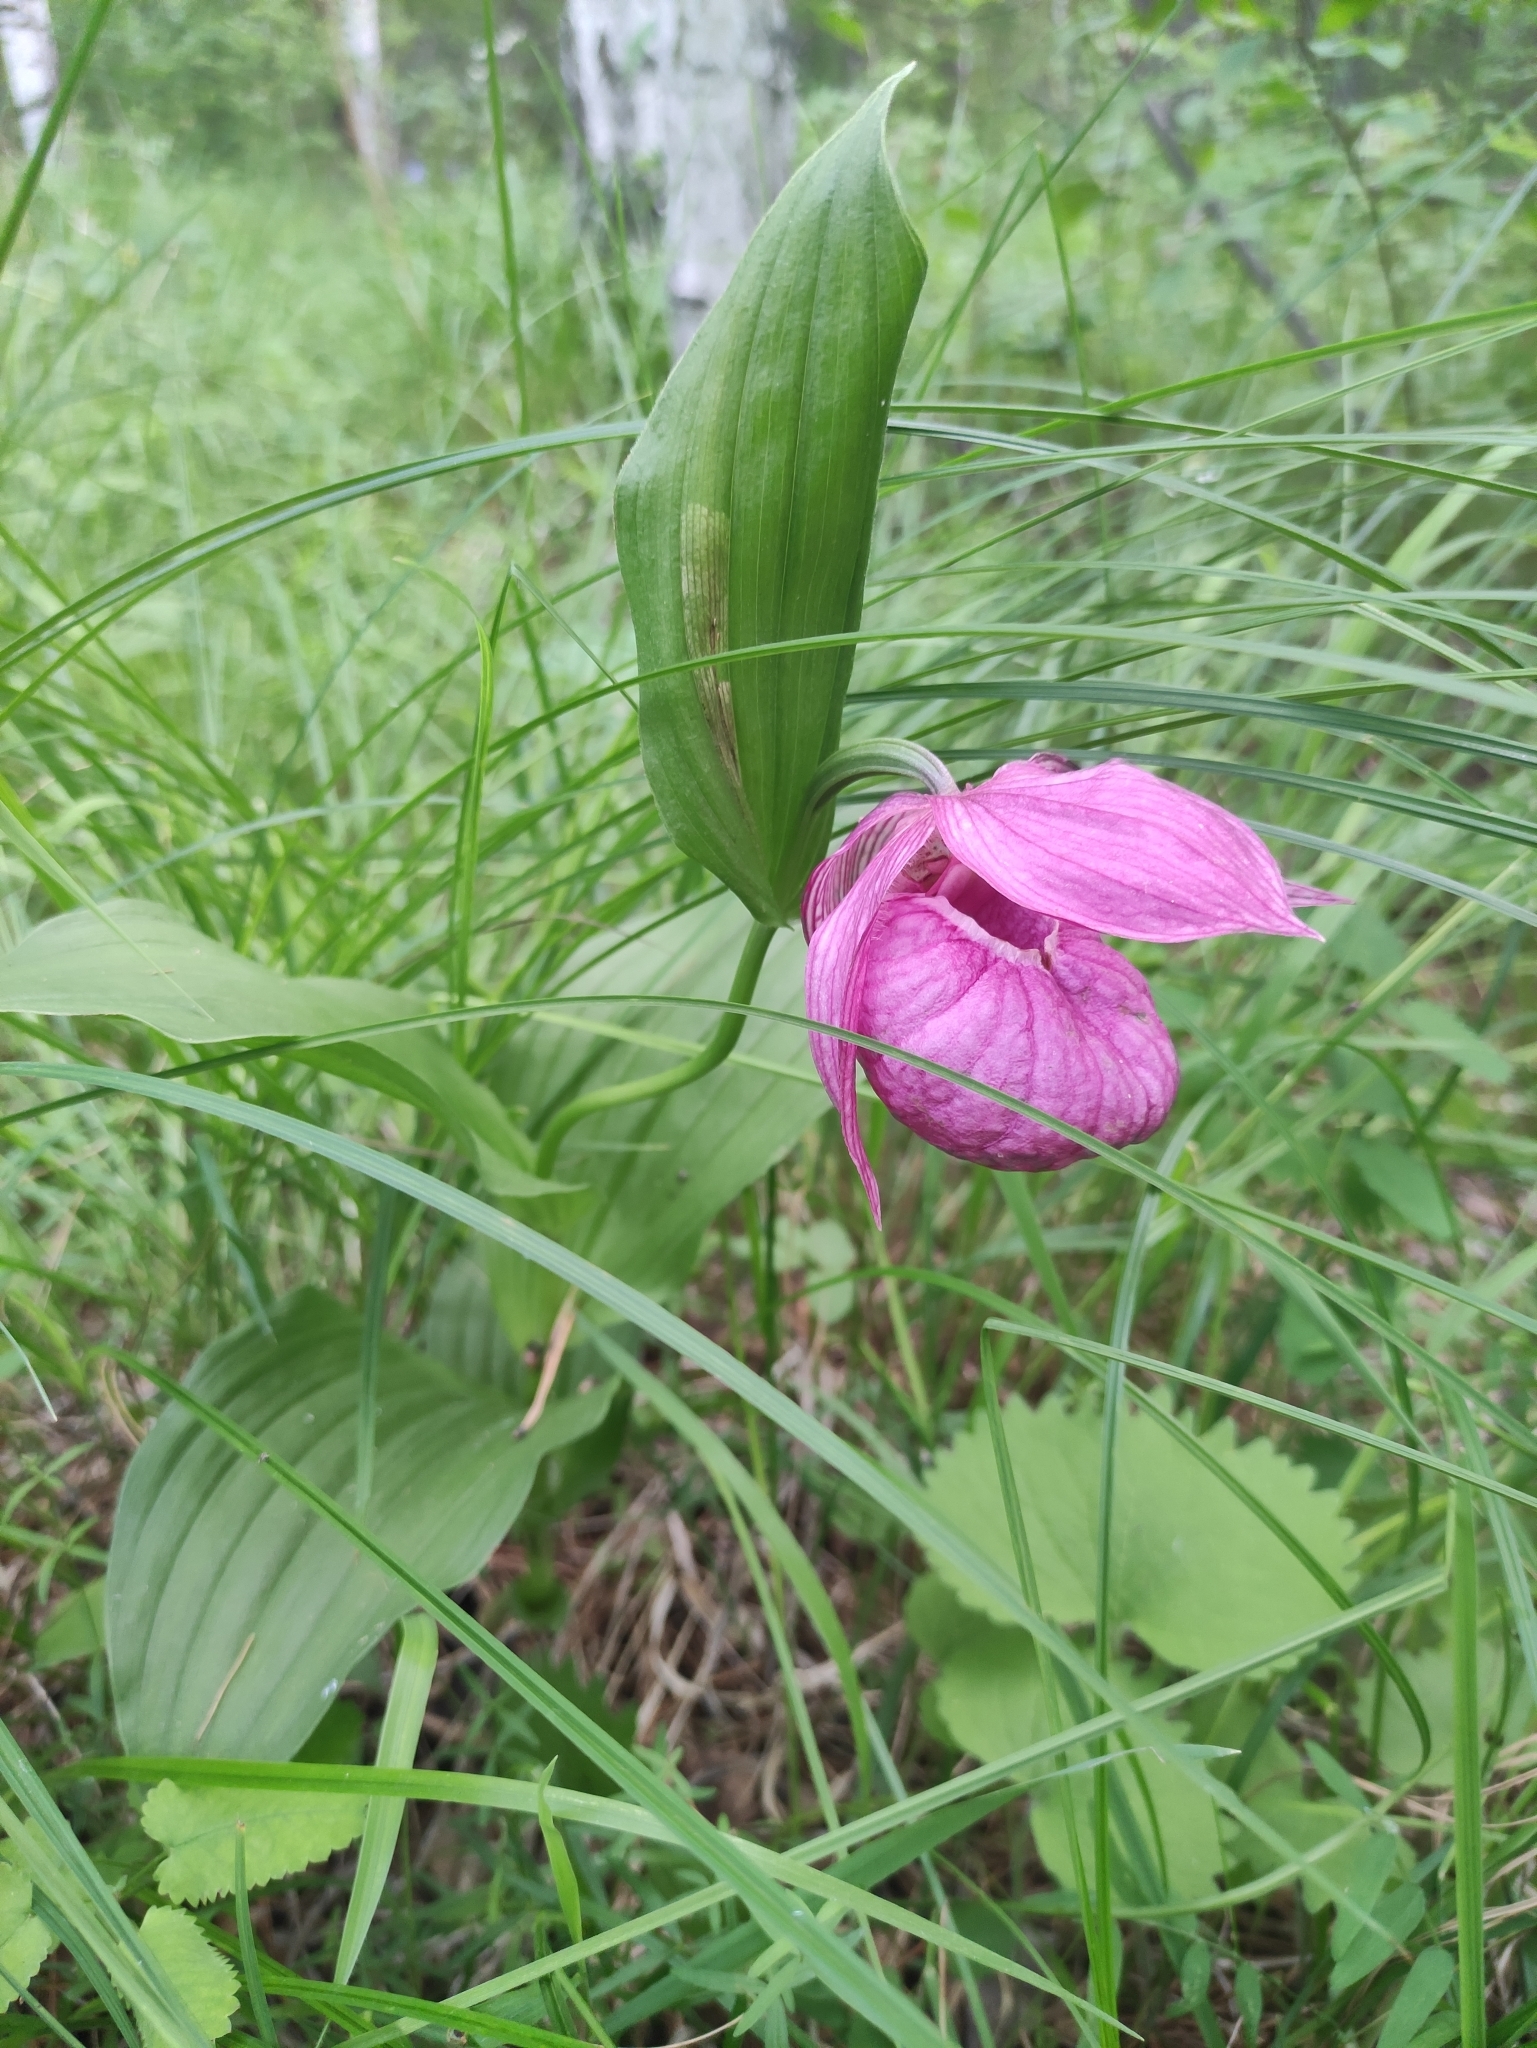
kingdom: Plantae
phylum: Tracheophyta
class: Liliopsida
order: Asparagales
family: Orchidaceae
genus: Cypripedium
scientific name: Cypripedium macranthos
